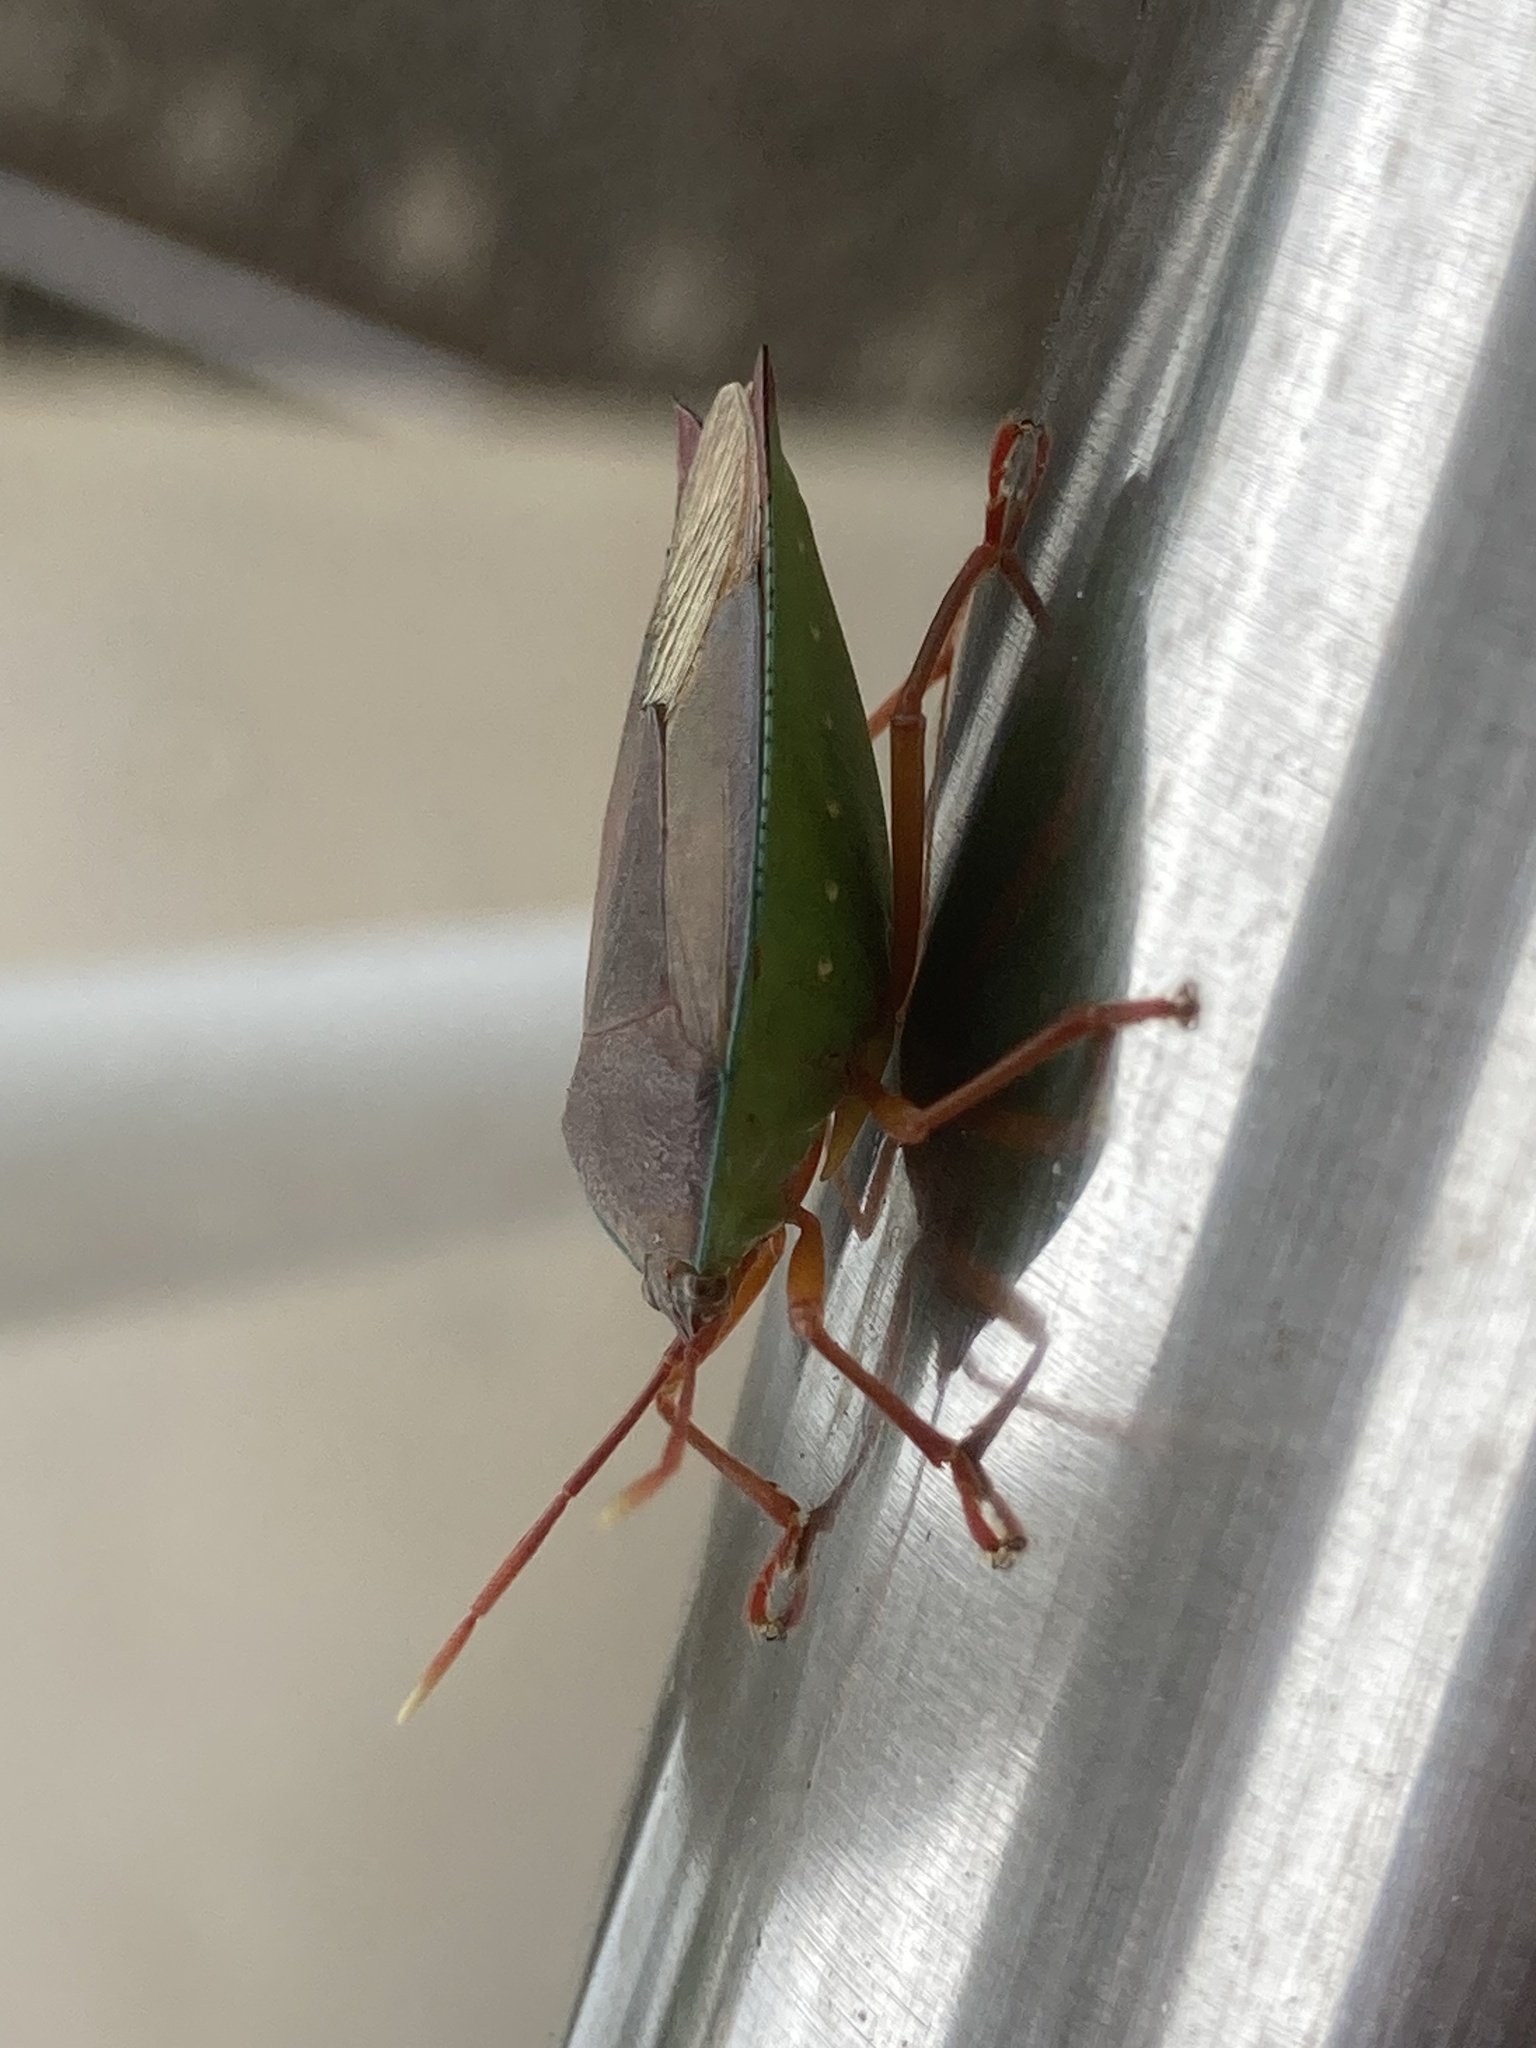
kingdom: Animalia
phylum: Arthropoda
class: Insecta
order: Hemiptera
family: Tessaratomidae
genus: Lyramorpha
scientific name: Lyramorpha rosea
